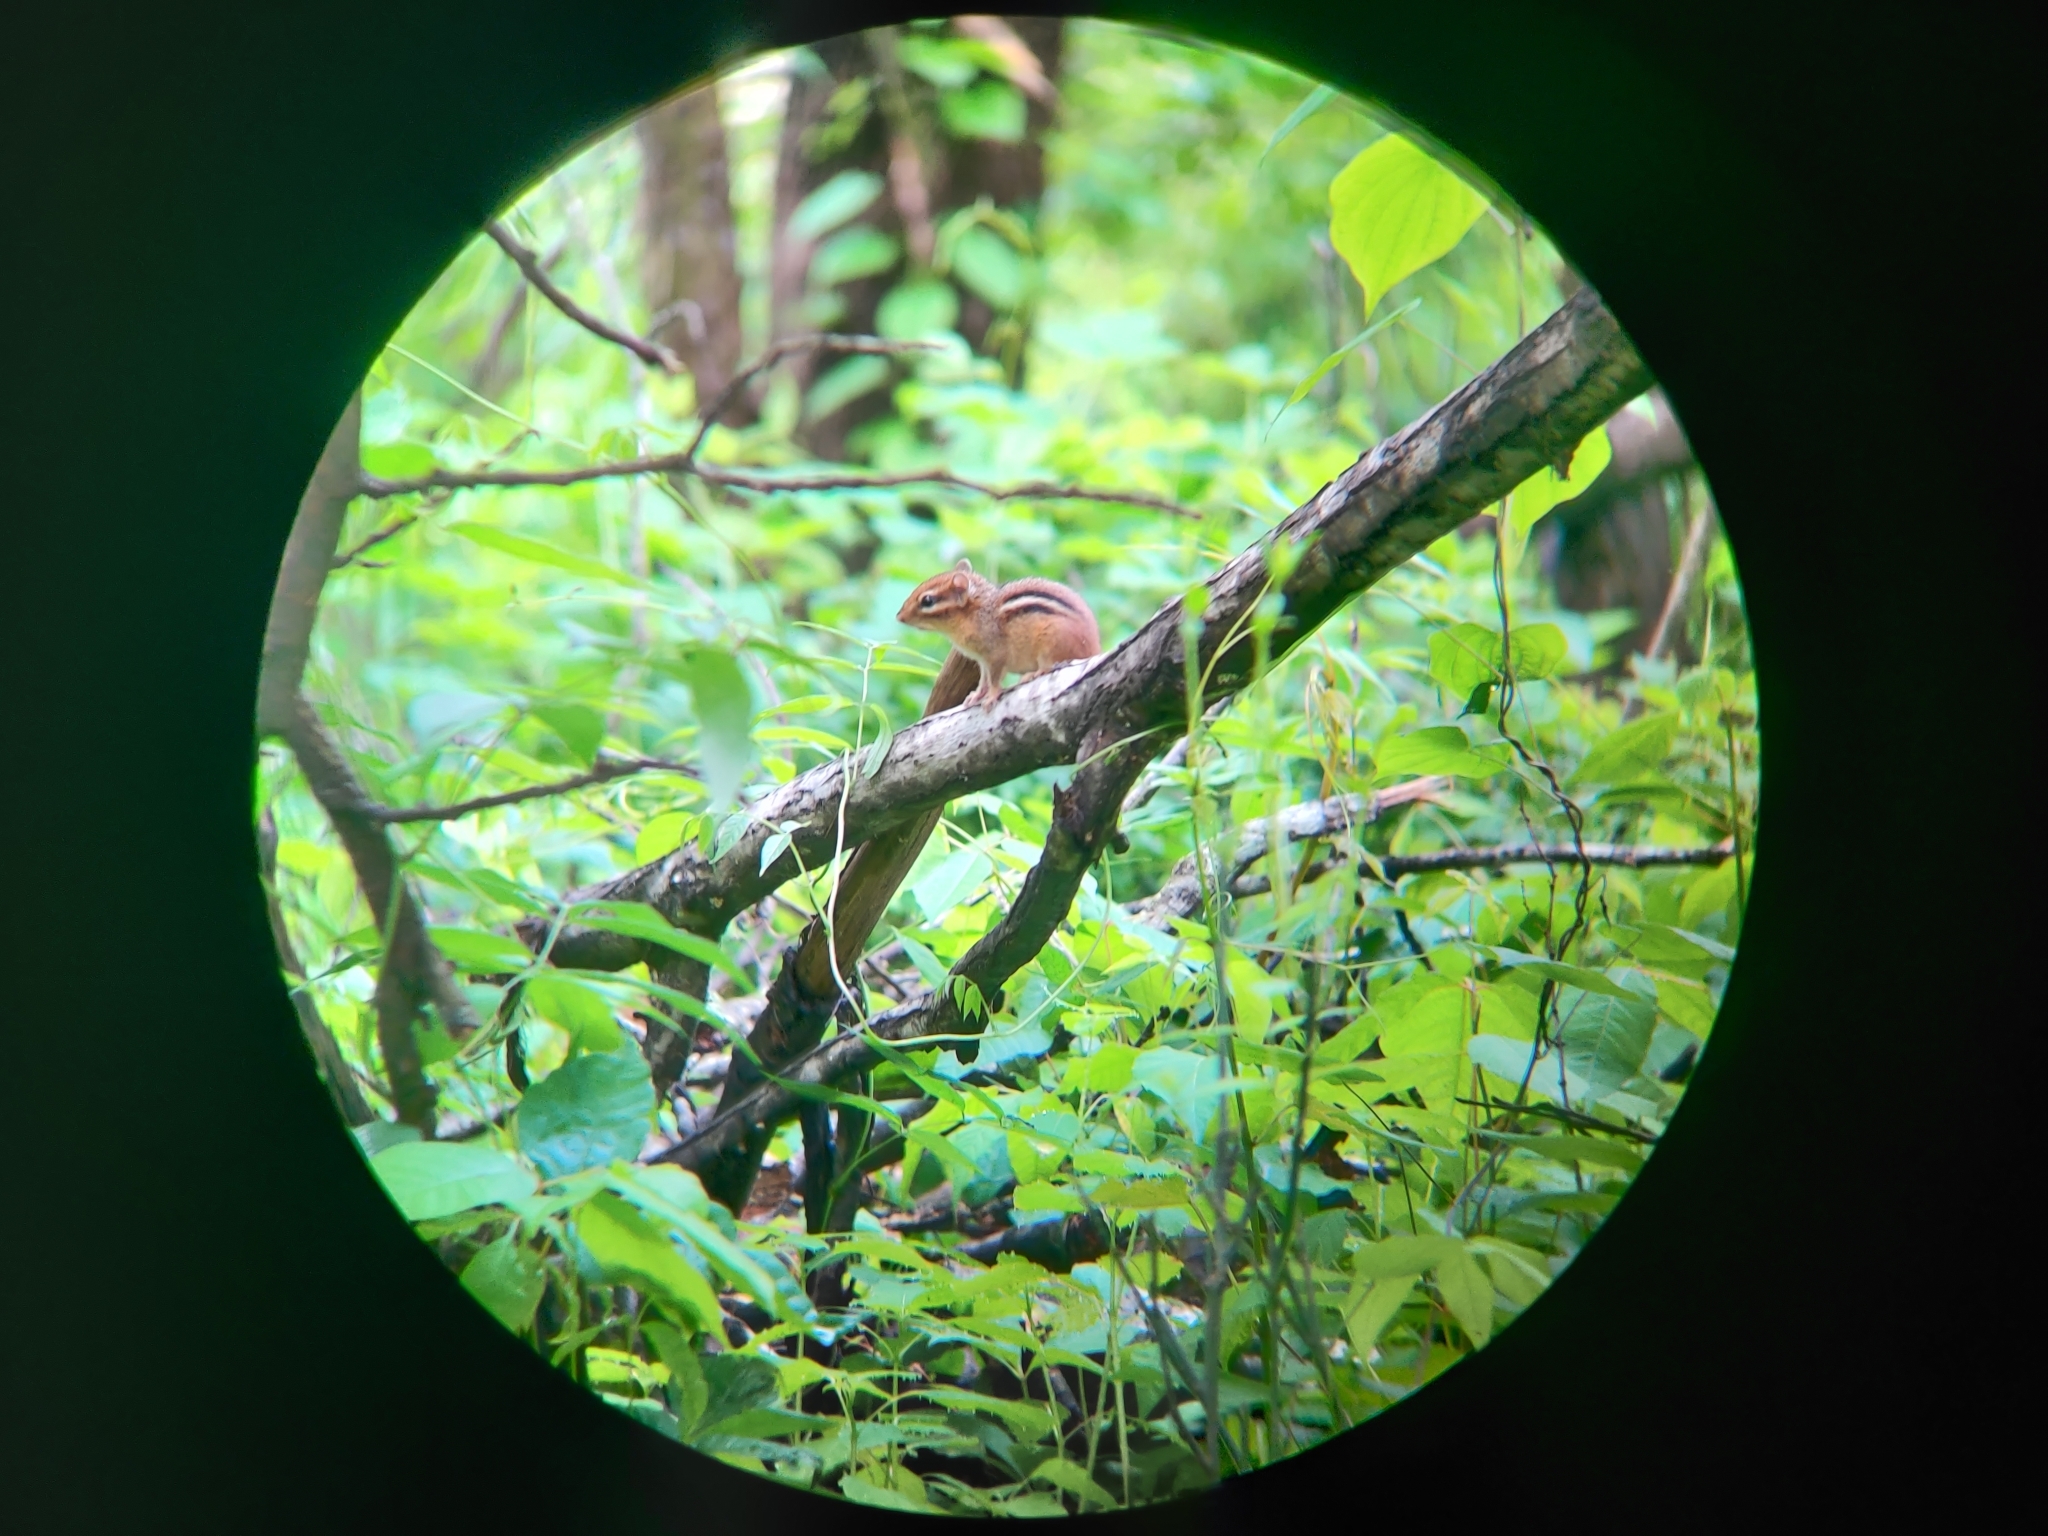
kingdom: Animalia
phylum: Chordata
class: Mammalia
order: Rodentia
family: Sciuridae
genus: Tamias
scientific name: Tamias striatus
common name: Eastern chipmunk
